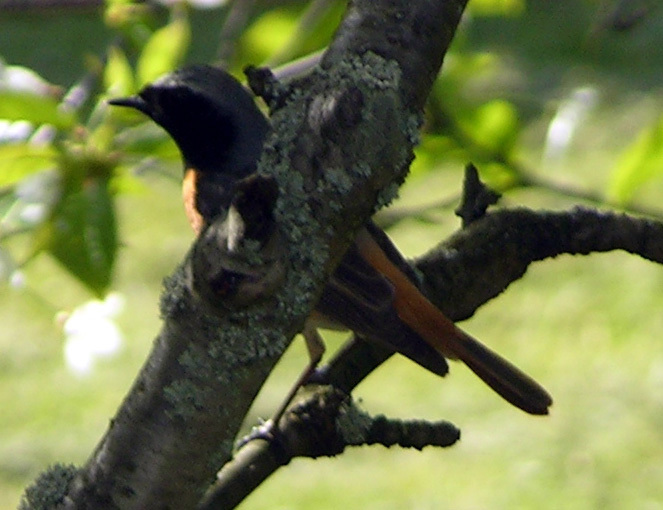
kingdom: Animalia
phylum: Chordata
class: Aves
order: Passeriformes
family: Muscicapidae
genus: Phoenicurus
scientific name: Phoenicurus phoenicurus
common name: Common redstart
